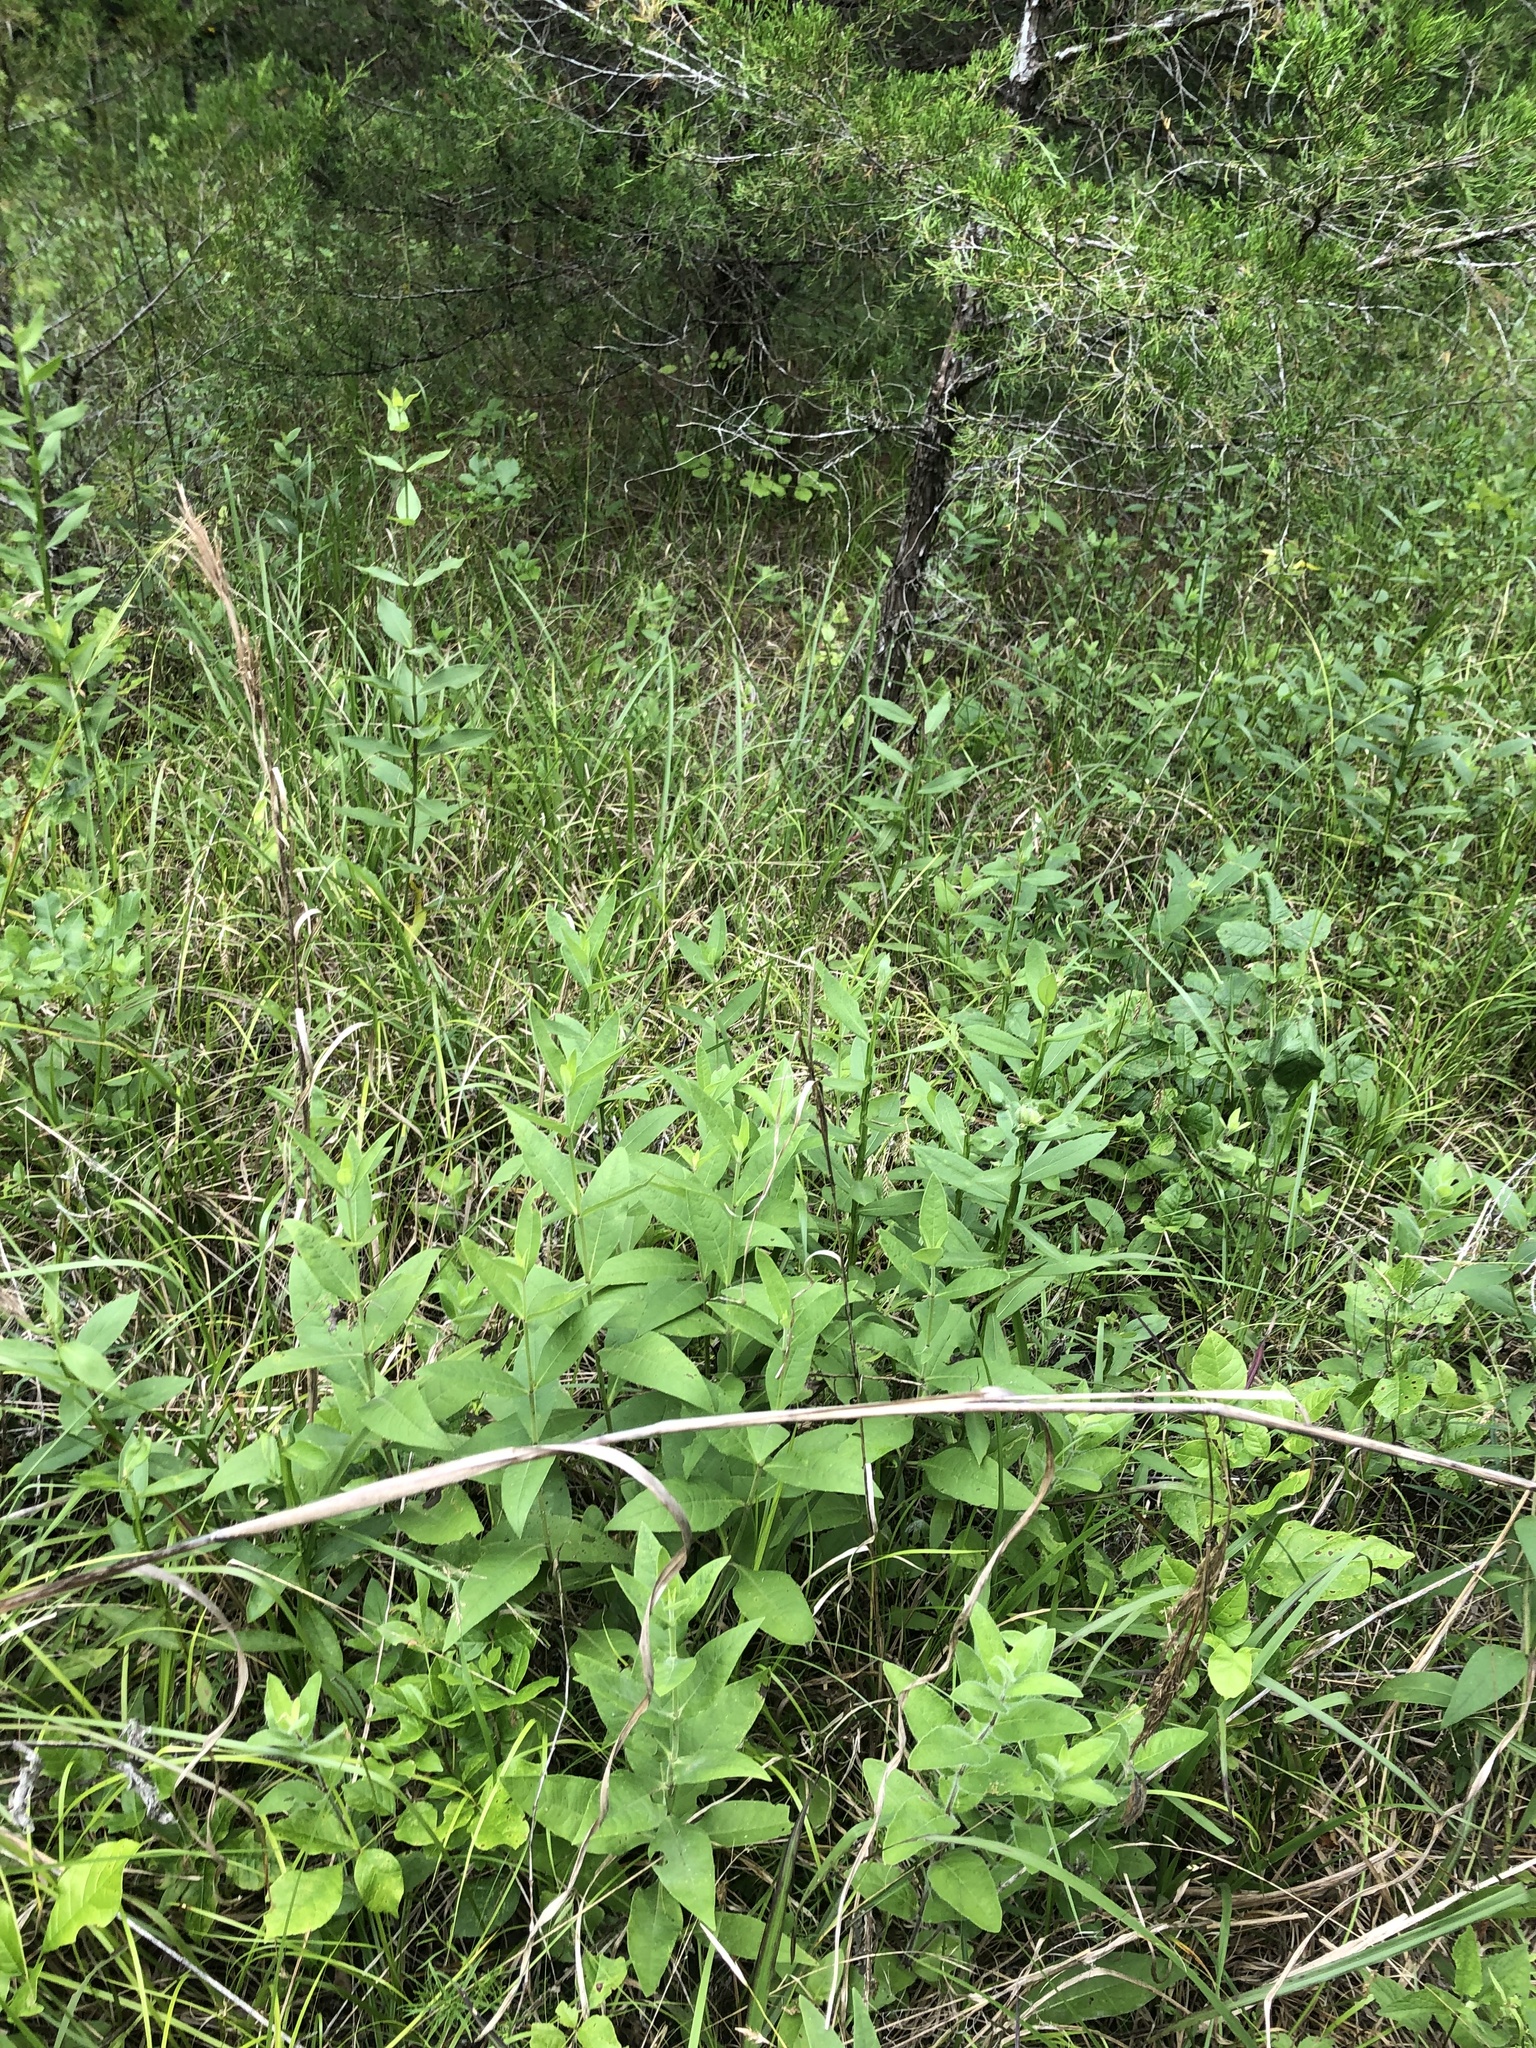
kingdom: Plantae
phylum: Tracheophyta
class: Magnoliopsida
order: Asterales
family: Asteraceae
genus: Silphium
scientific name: Silphium integrifolium
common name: Whole-leaf rosinweed
